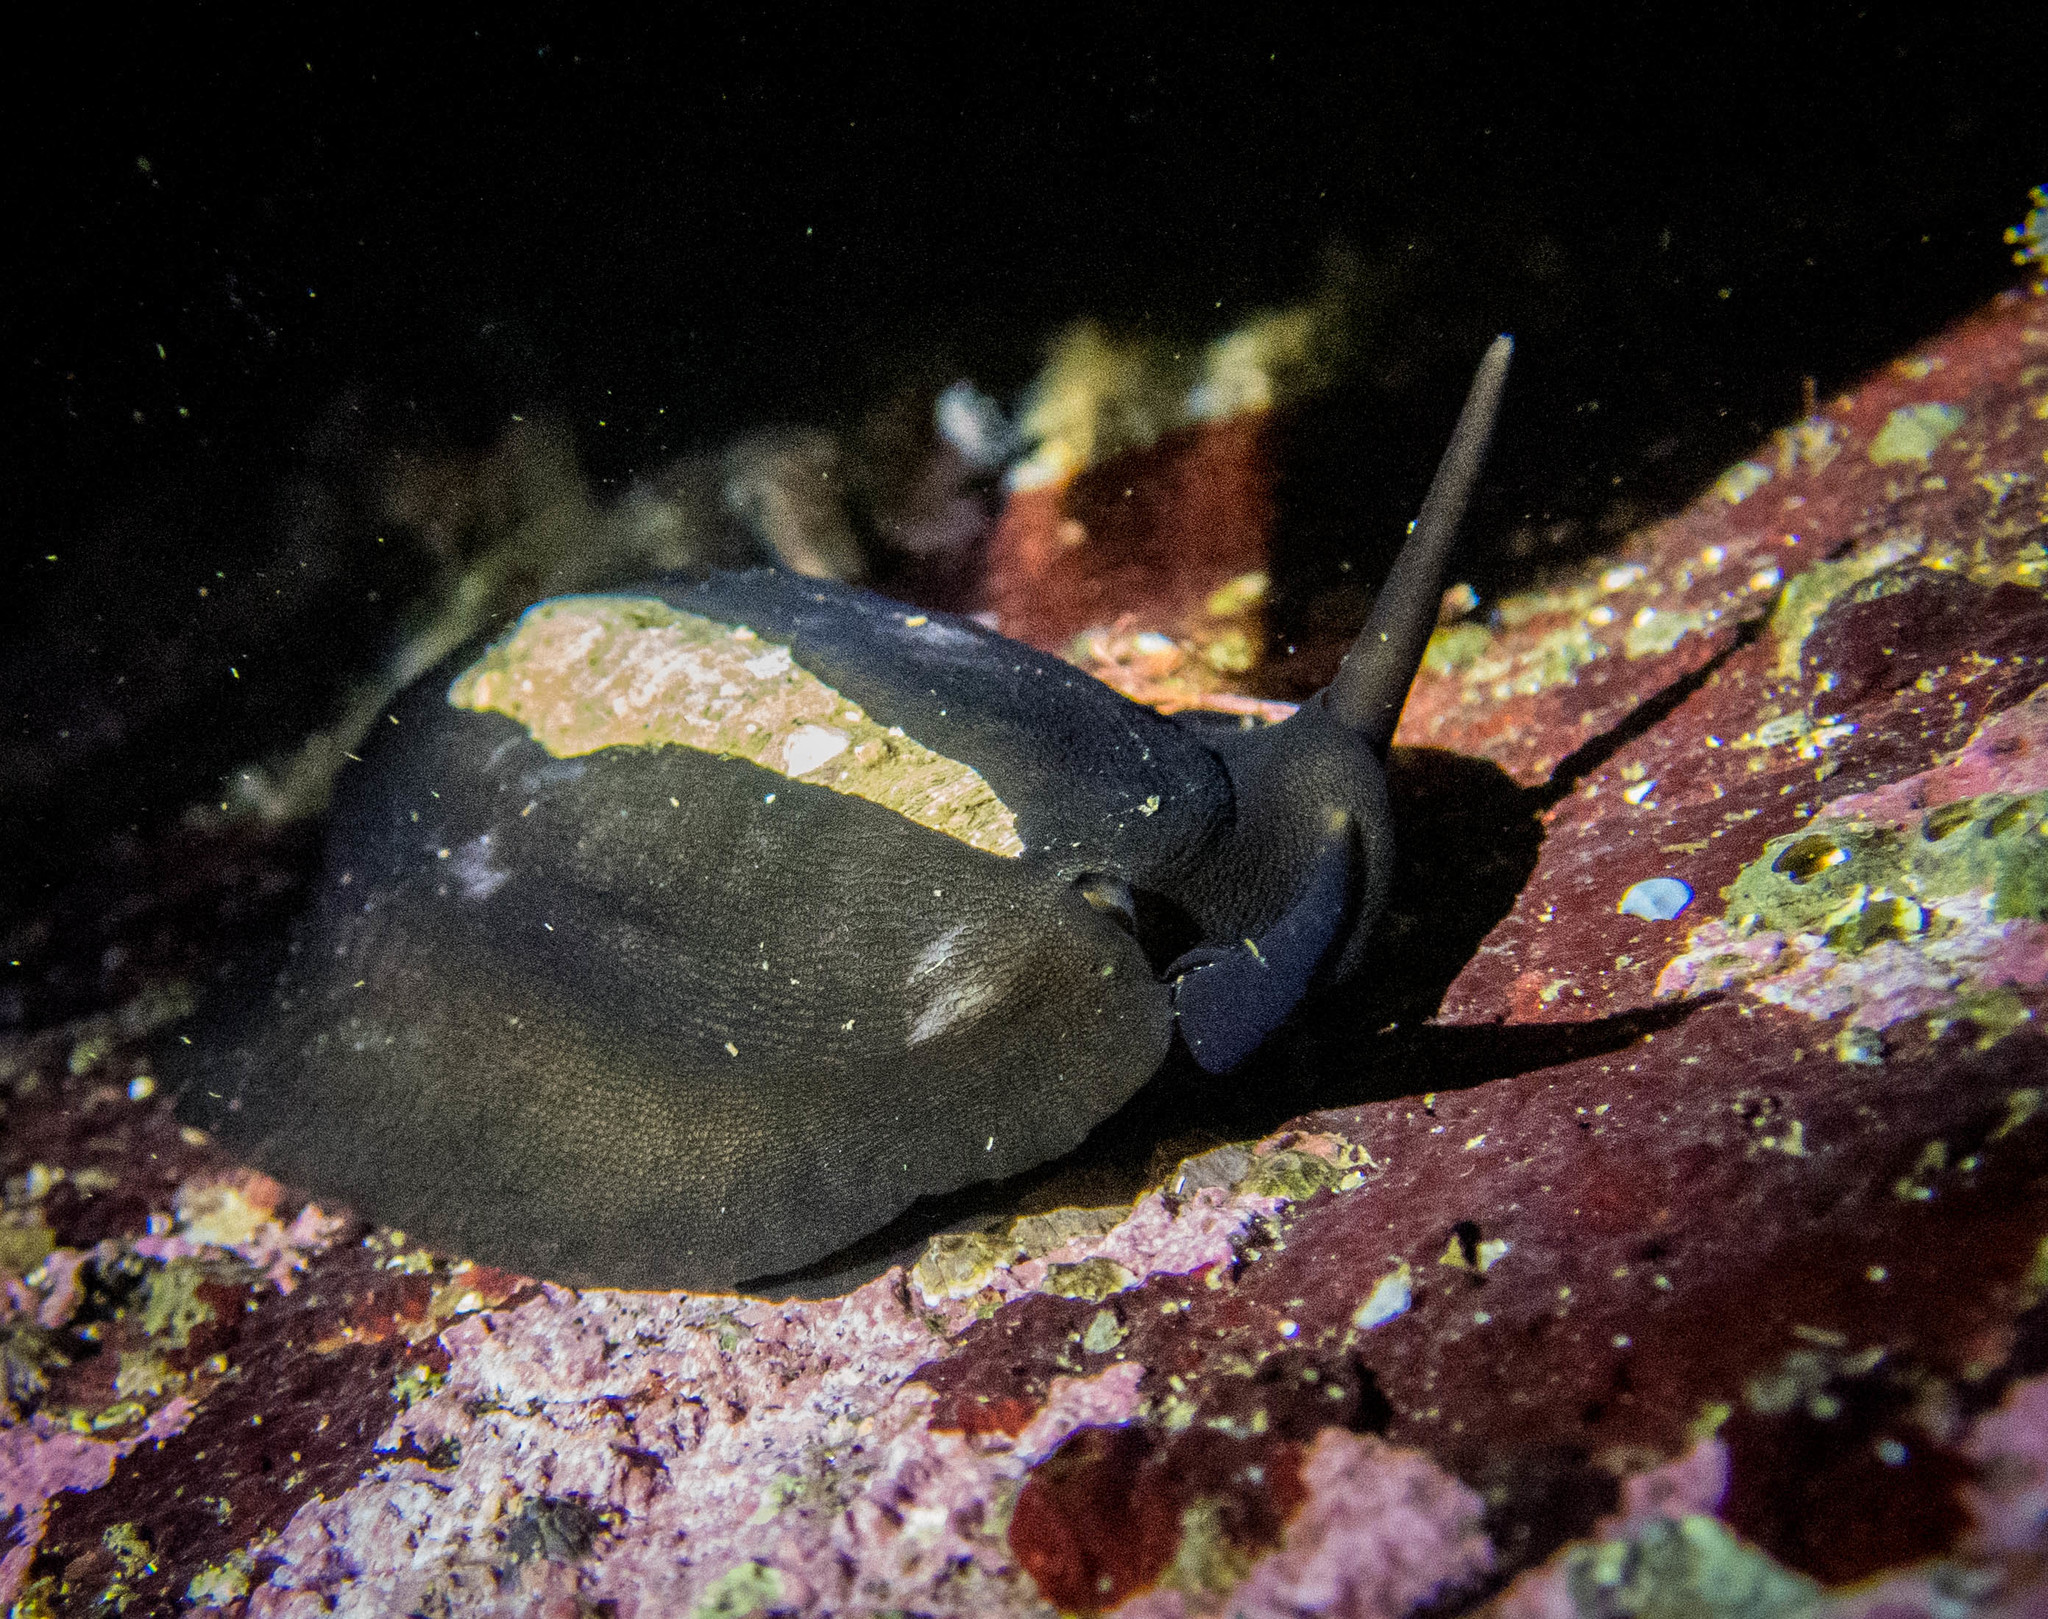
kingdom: Animalia
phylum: Mollusca
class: Gastropoda
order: Lepetellida
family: Fissurellidae
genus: Scutus
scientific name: Scutus antipodes
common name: Duckbill shell
